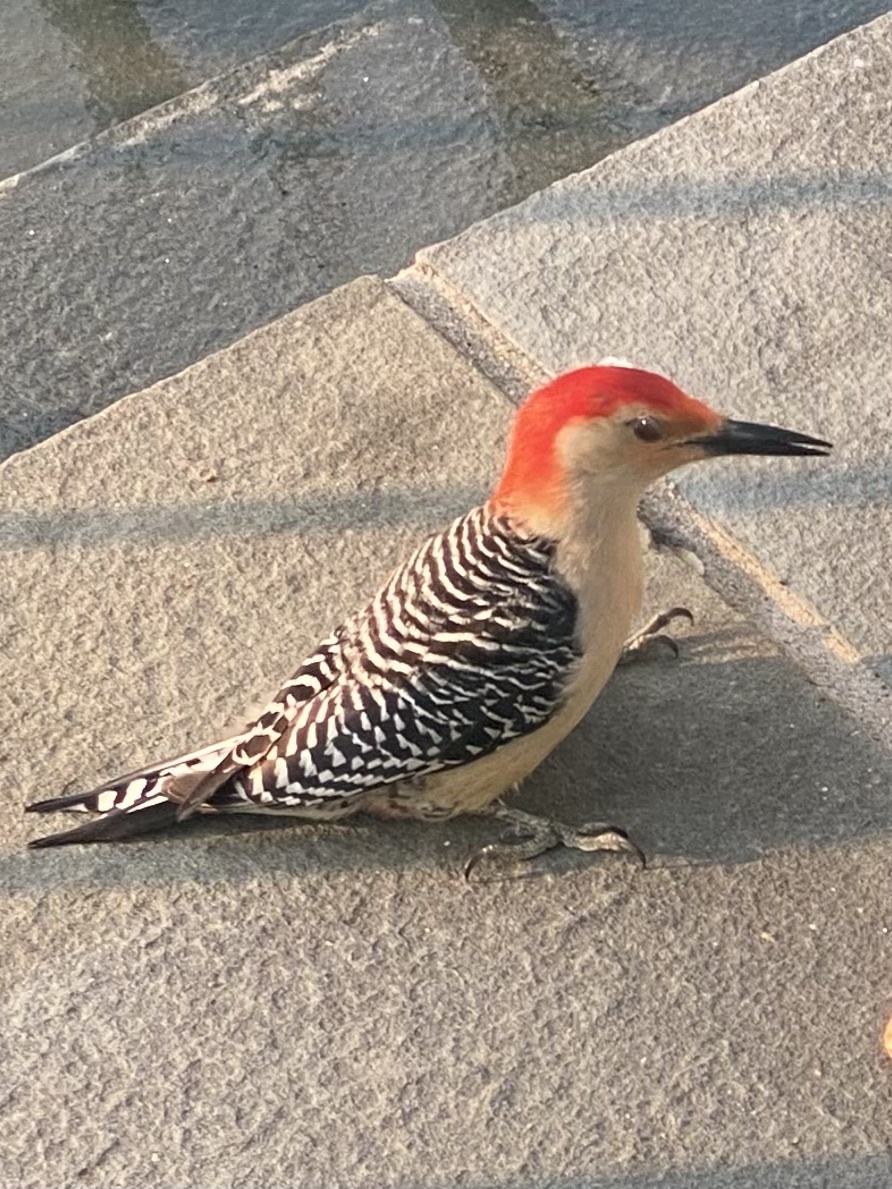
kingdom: Animalia
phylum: Chordata
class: Aves
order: Piciformes
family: Picidae
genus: Melanerpes
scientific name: Melanerpes carolinus
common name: Red-bellied woodpecker
